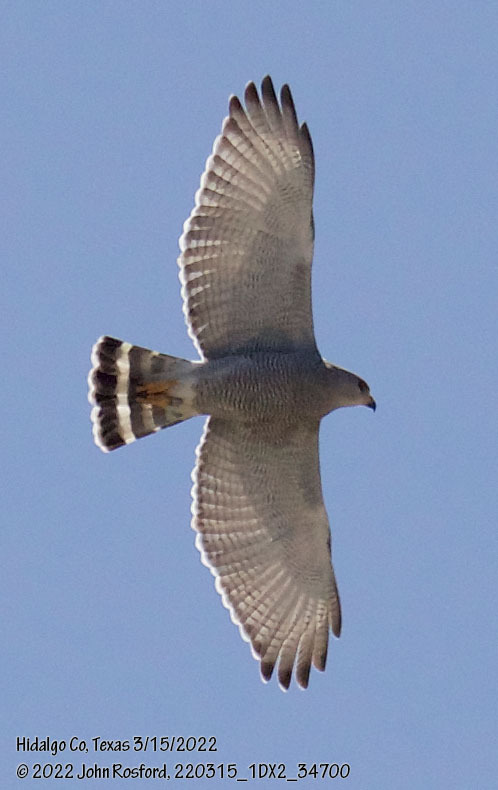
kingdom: Animalia
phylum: Chordata
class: Aves
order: Accipitriformes
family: Accipitridae
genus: Buteo
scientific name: Buteo nitidus
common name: Grey-lined hawk
